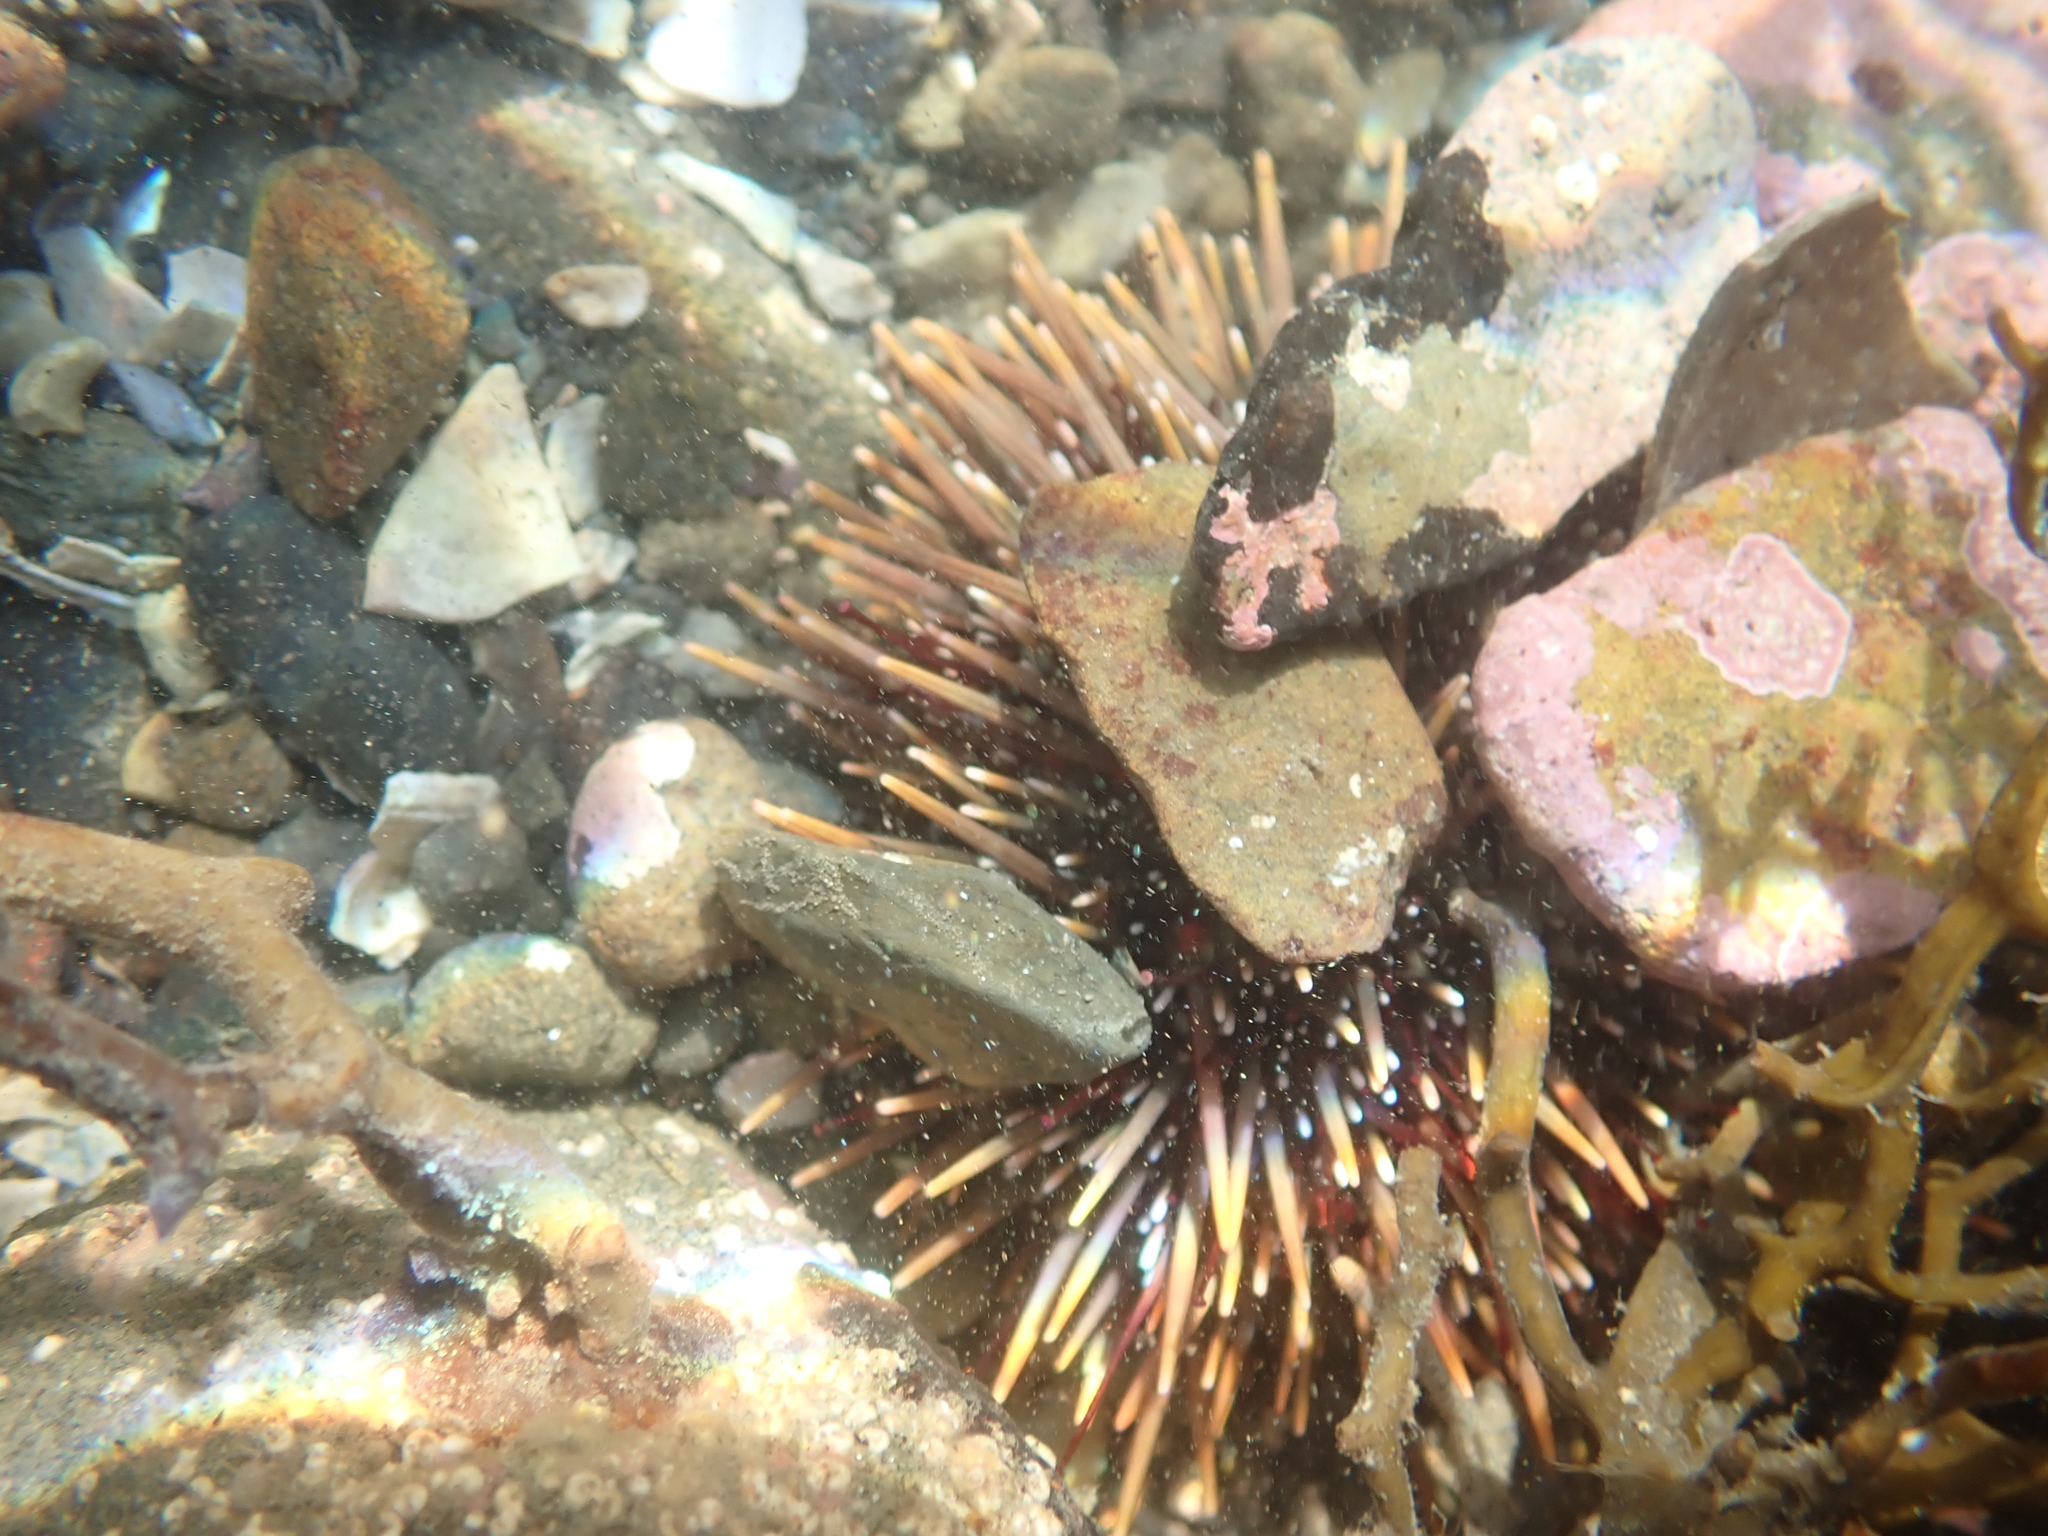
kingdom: Animalia
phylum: Echinodermata
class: Echinoidea
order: Camarodonta
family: Echinometridae
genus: Evechinus
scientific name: Evechinus chloroticus
